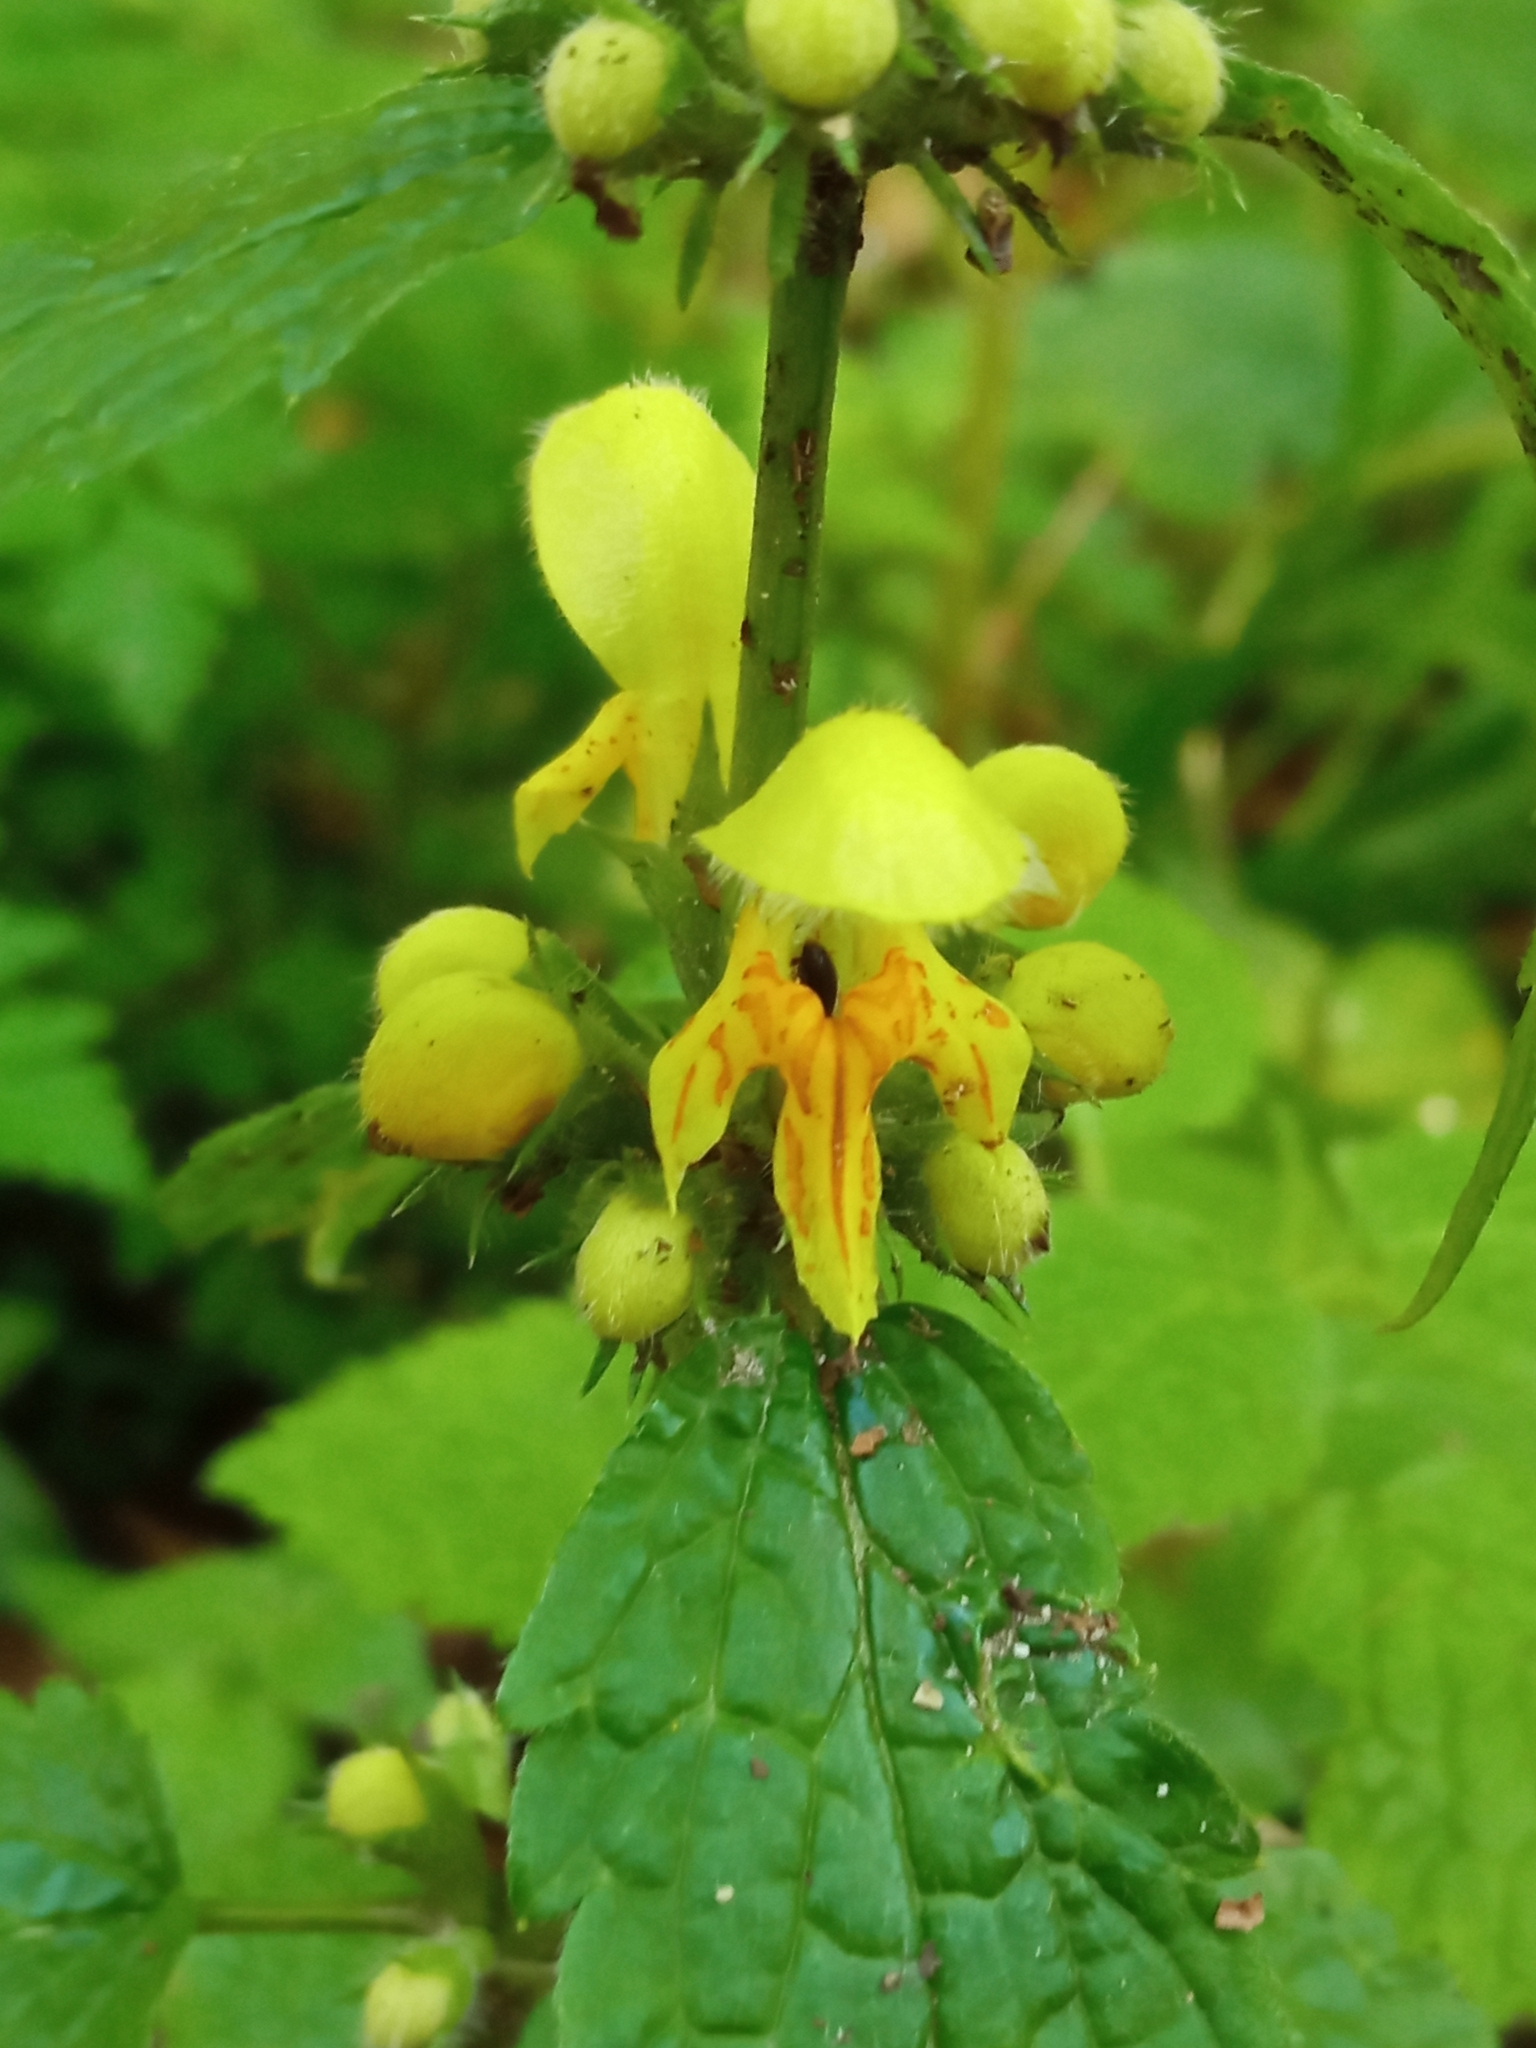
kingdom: Plantae
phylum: Tracheophyta
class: Magnoliopsida
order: Lamiales
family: Lamiaceae
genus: Lamium
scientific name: Lamium galeobdolon
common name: Yellow archangel
